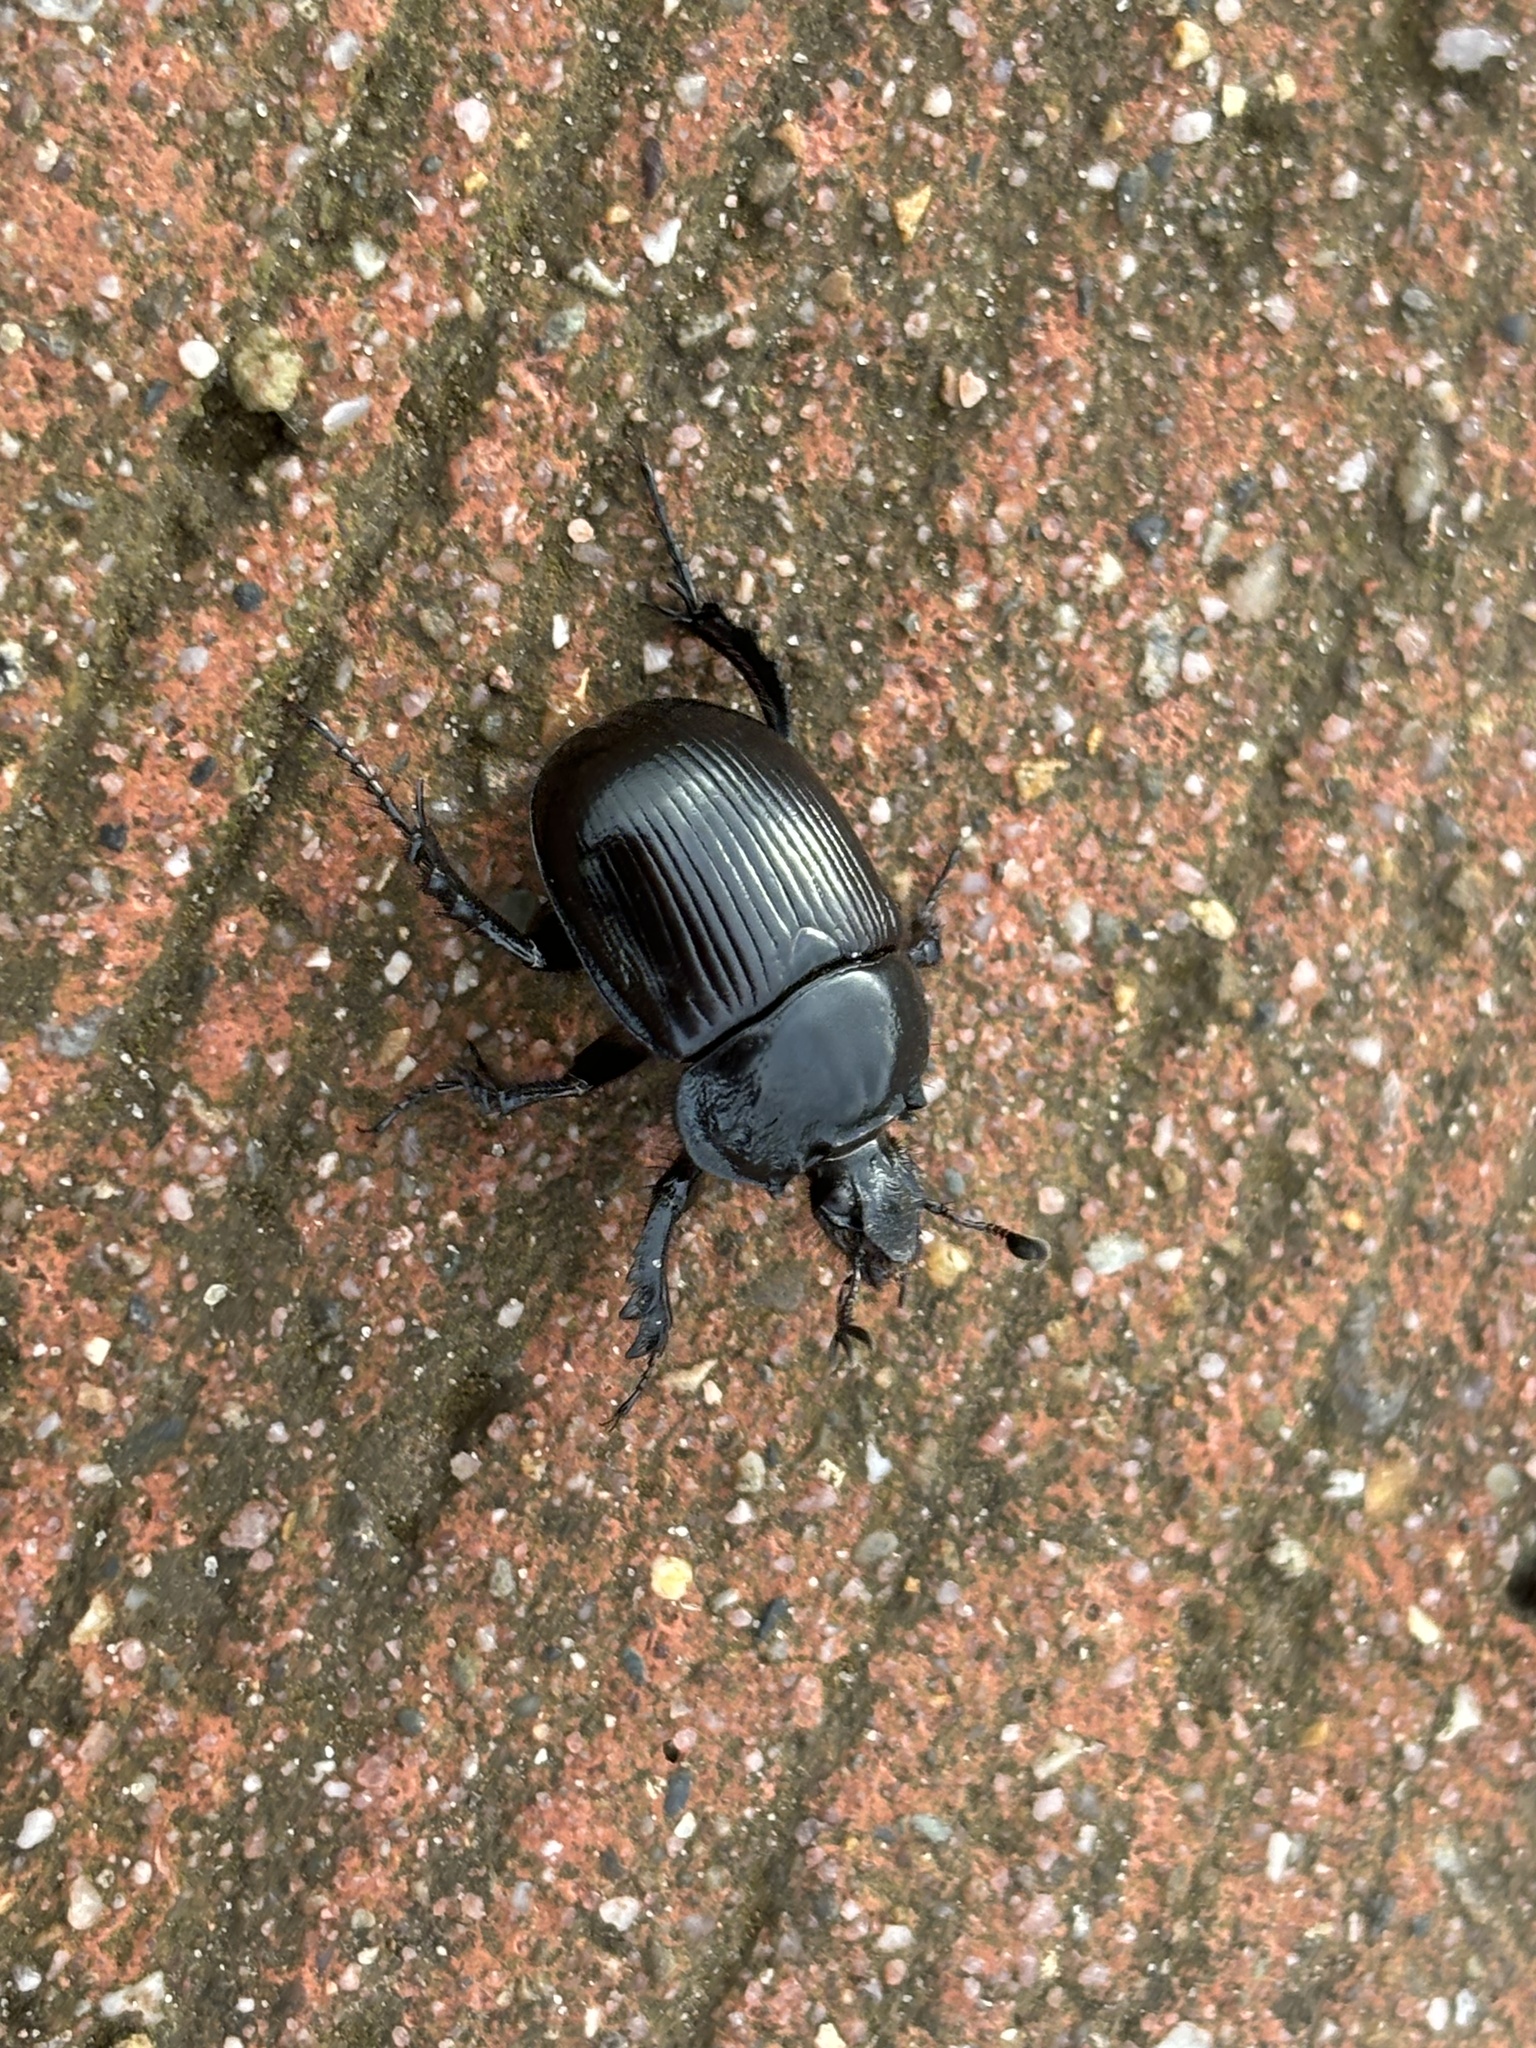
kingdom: Animalia
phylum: Arthropoda
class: Insecta
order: Coleoptera
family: Geotrupidae
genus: Typhaeus
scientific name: Typhaeus typhoeus
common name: Minotaur beetle
